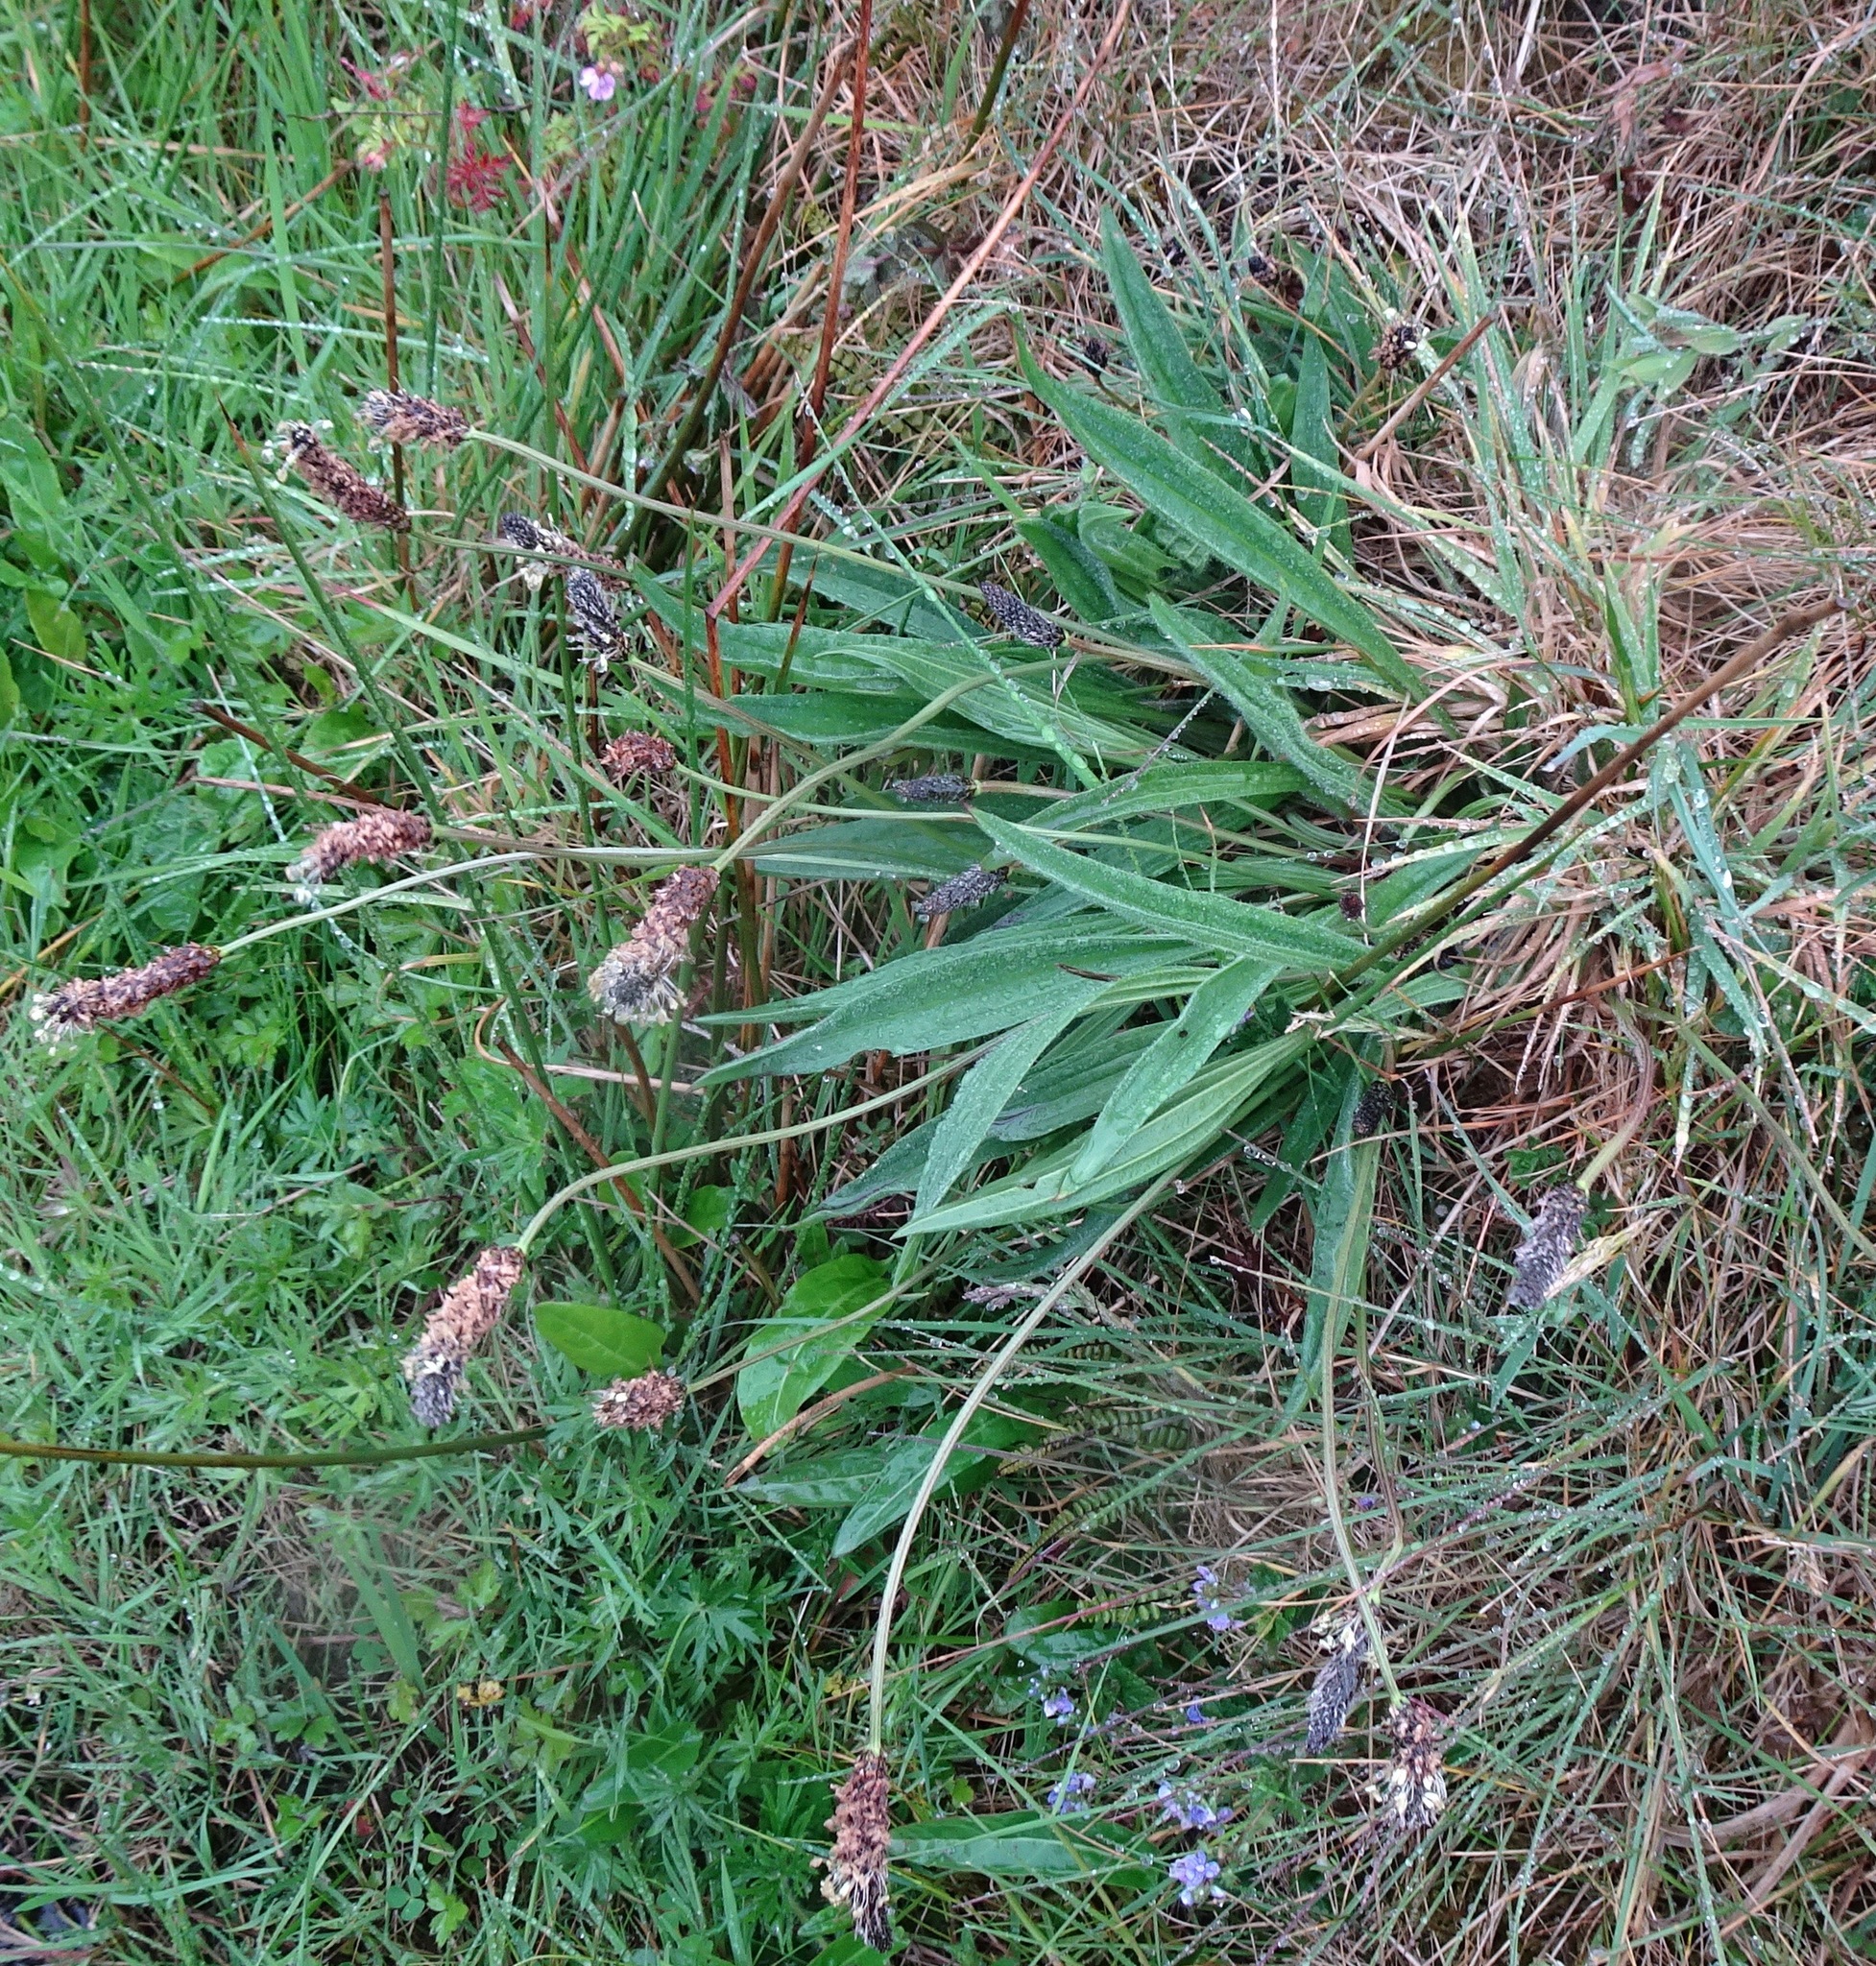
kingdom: Plantae
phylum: Tracheophyta
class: Magnoliopsida
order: Lamiales
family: Plantaginaceae
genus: Plantago
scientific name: Plantago lanceolata
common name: Ribwort plantain
